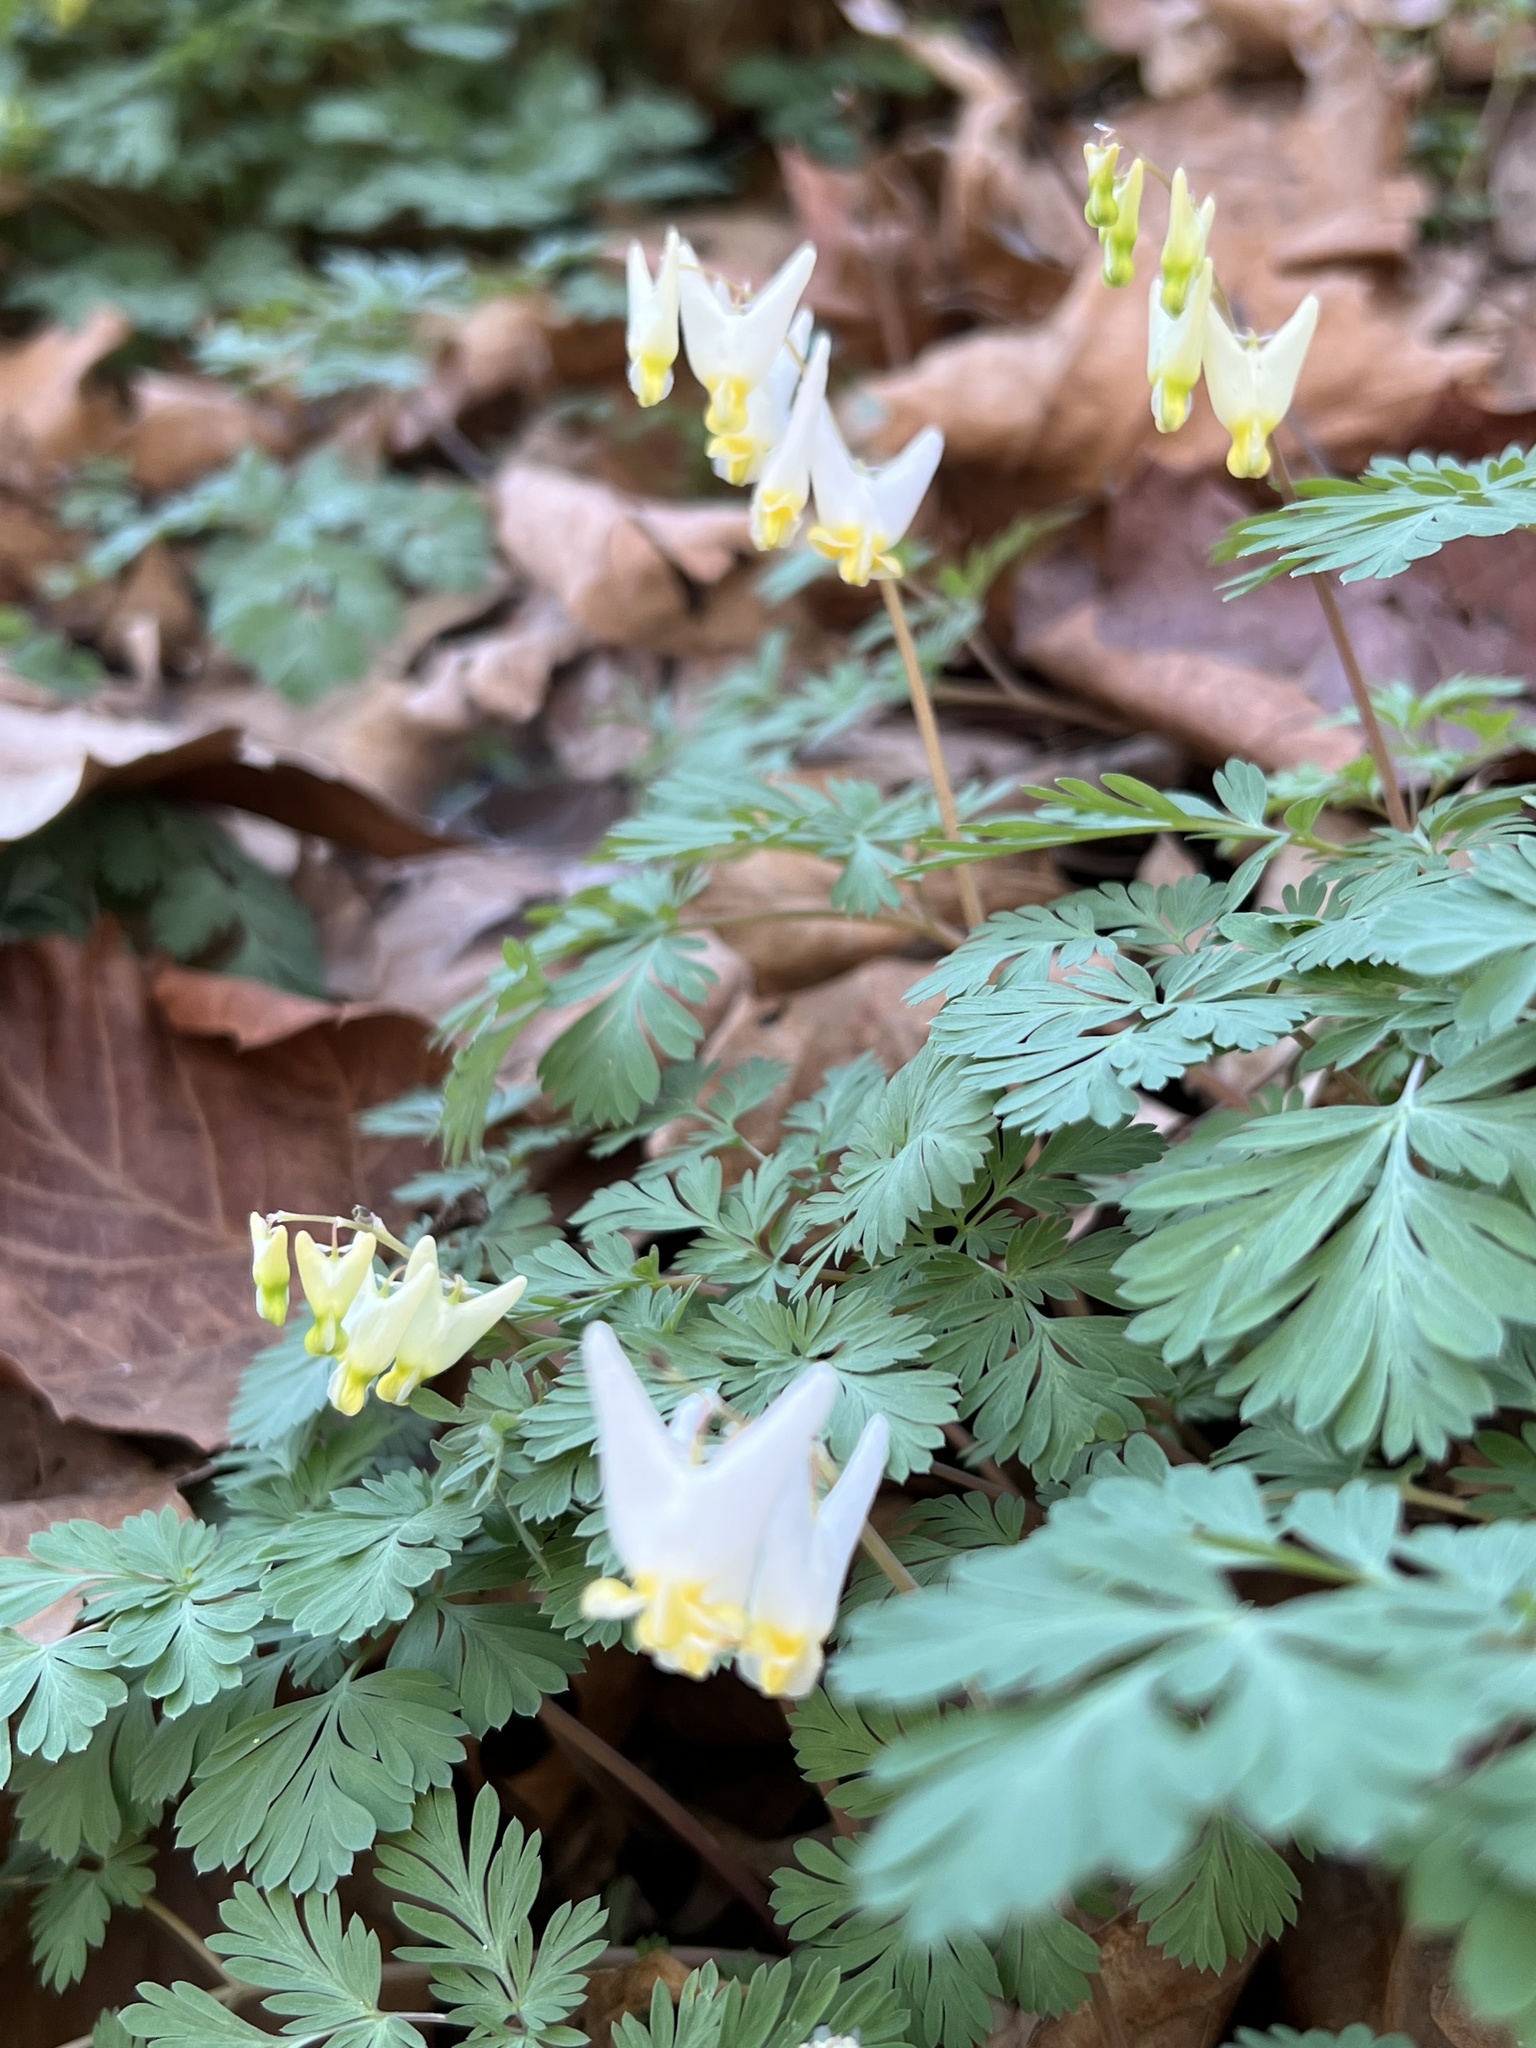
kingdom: Plantae
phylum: Tracheophyta
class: Magnoliopsida
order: Ranunculales
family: Papaveraceae
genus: Dicentra
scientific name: Dicentra cucullaria
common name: Dutchman's breeches
